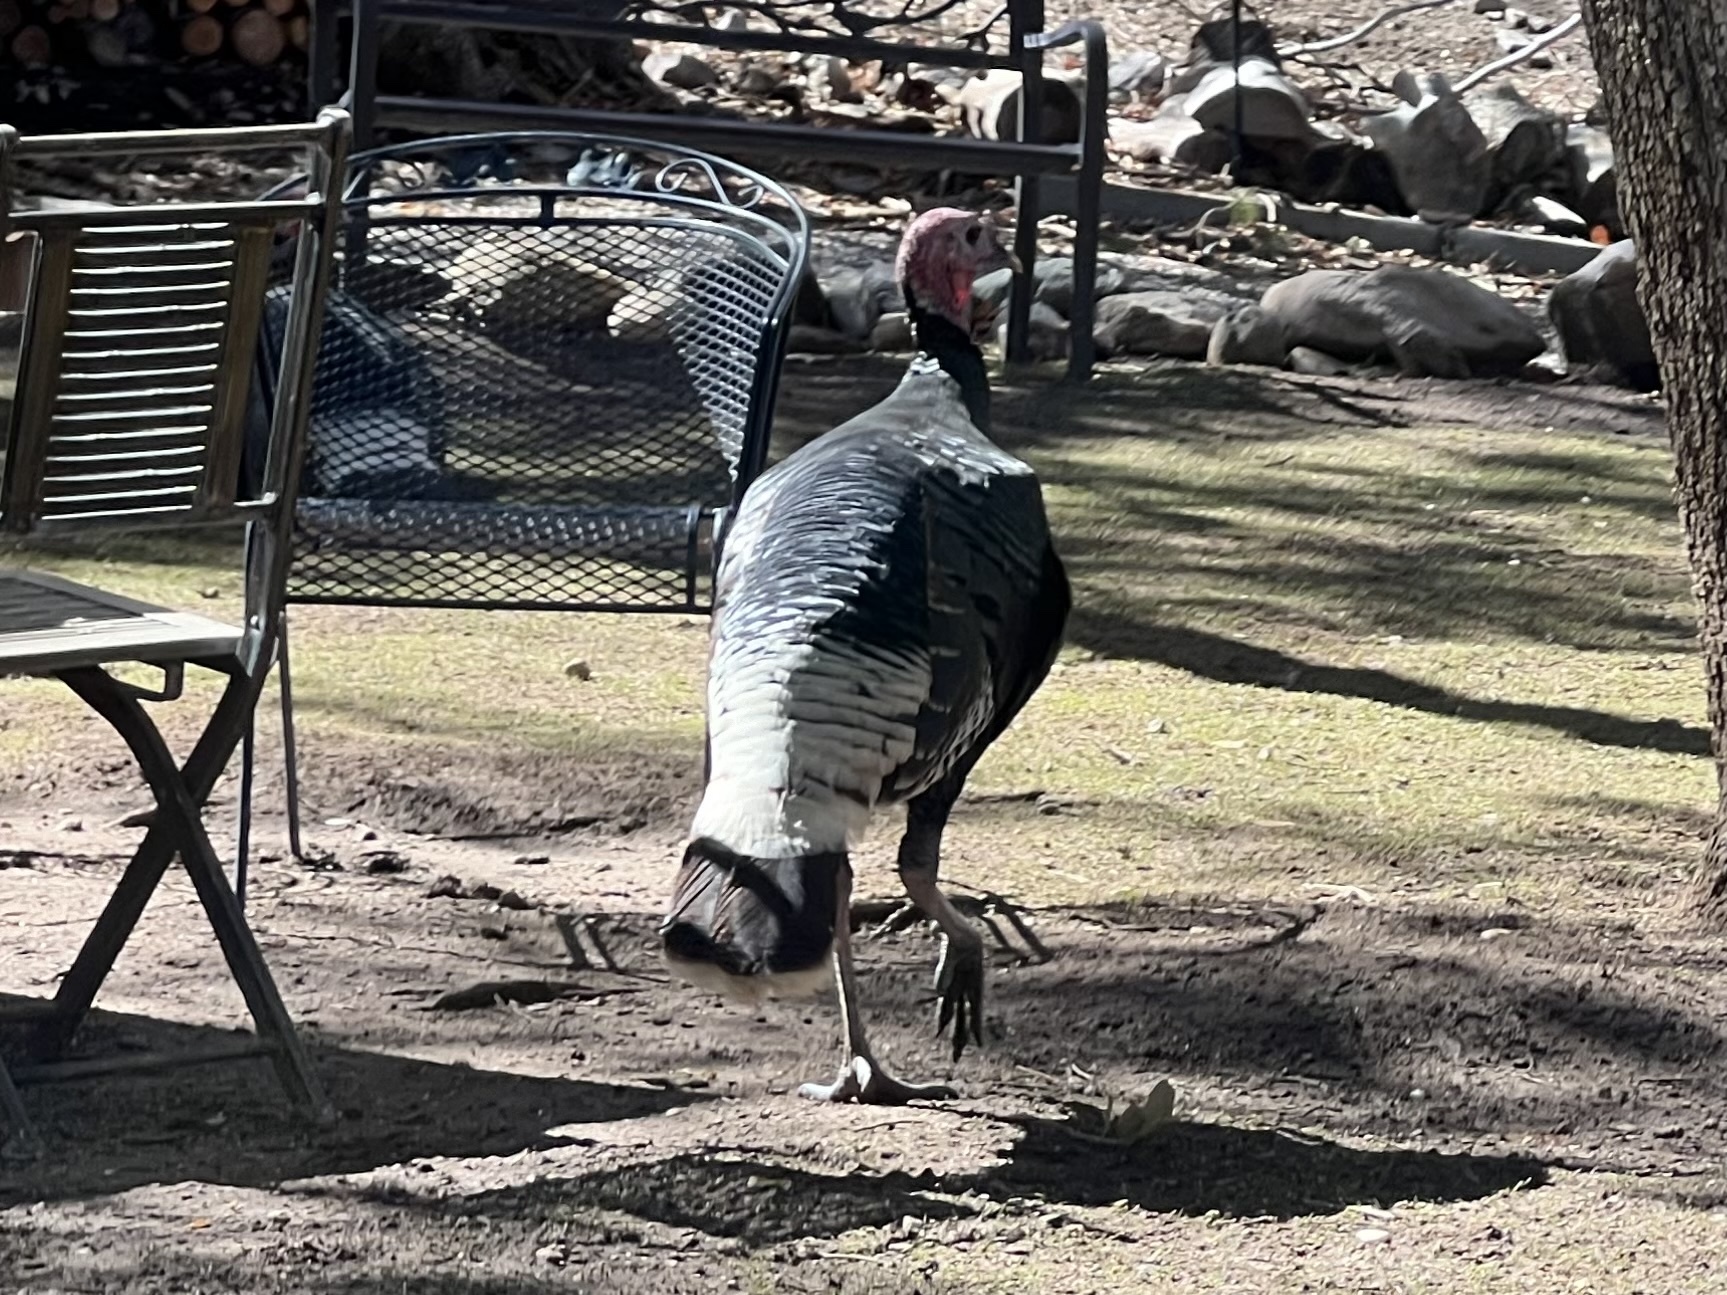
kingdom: Animalia
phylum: Chordata
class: Aves
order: Galliformes
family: Phasianidae
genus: Meleagris
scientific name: Meleagris gallopavo
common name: Wild turkey
